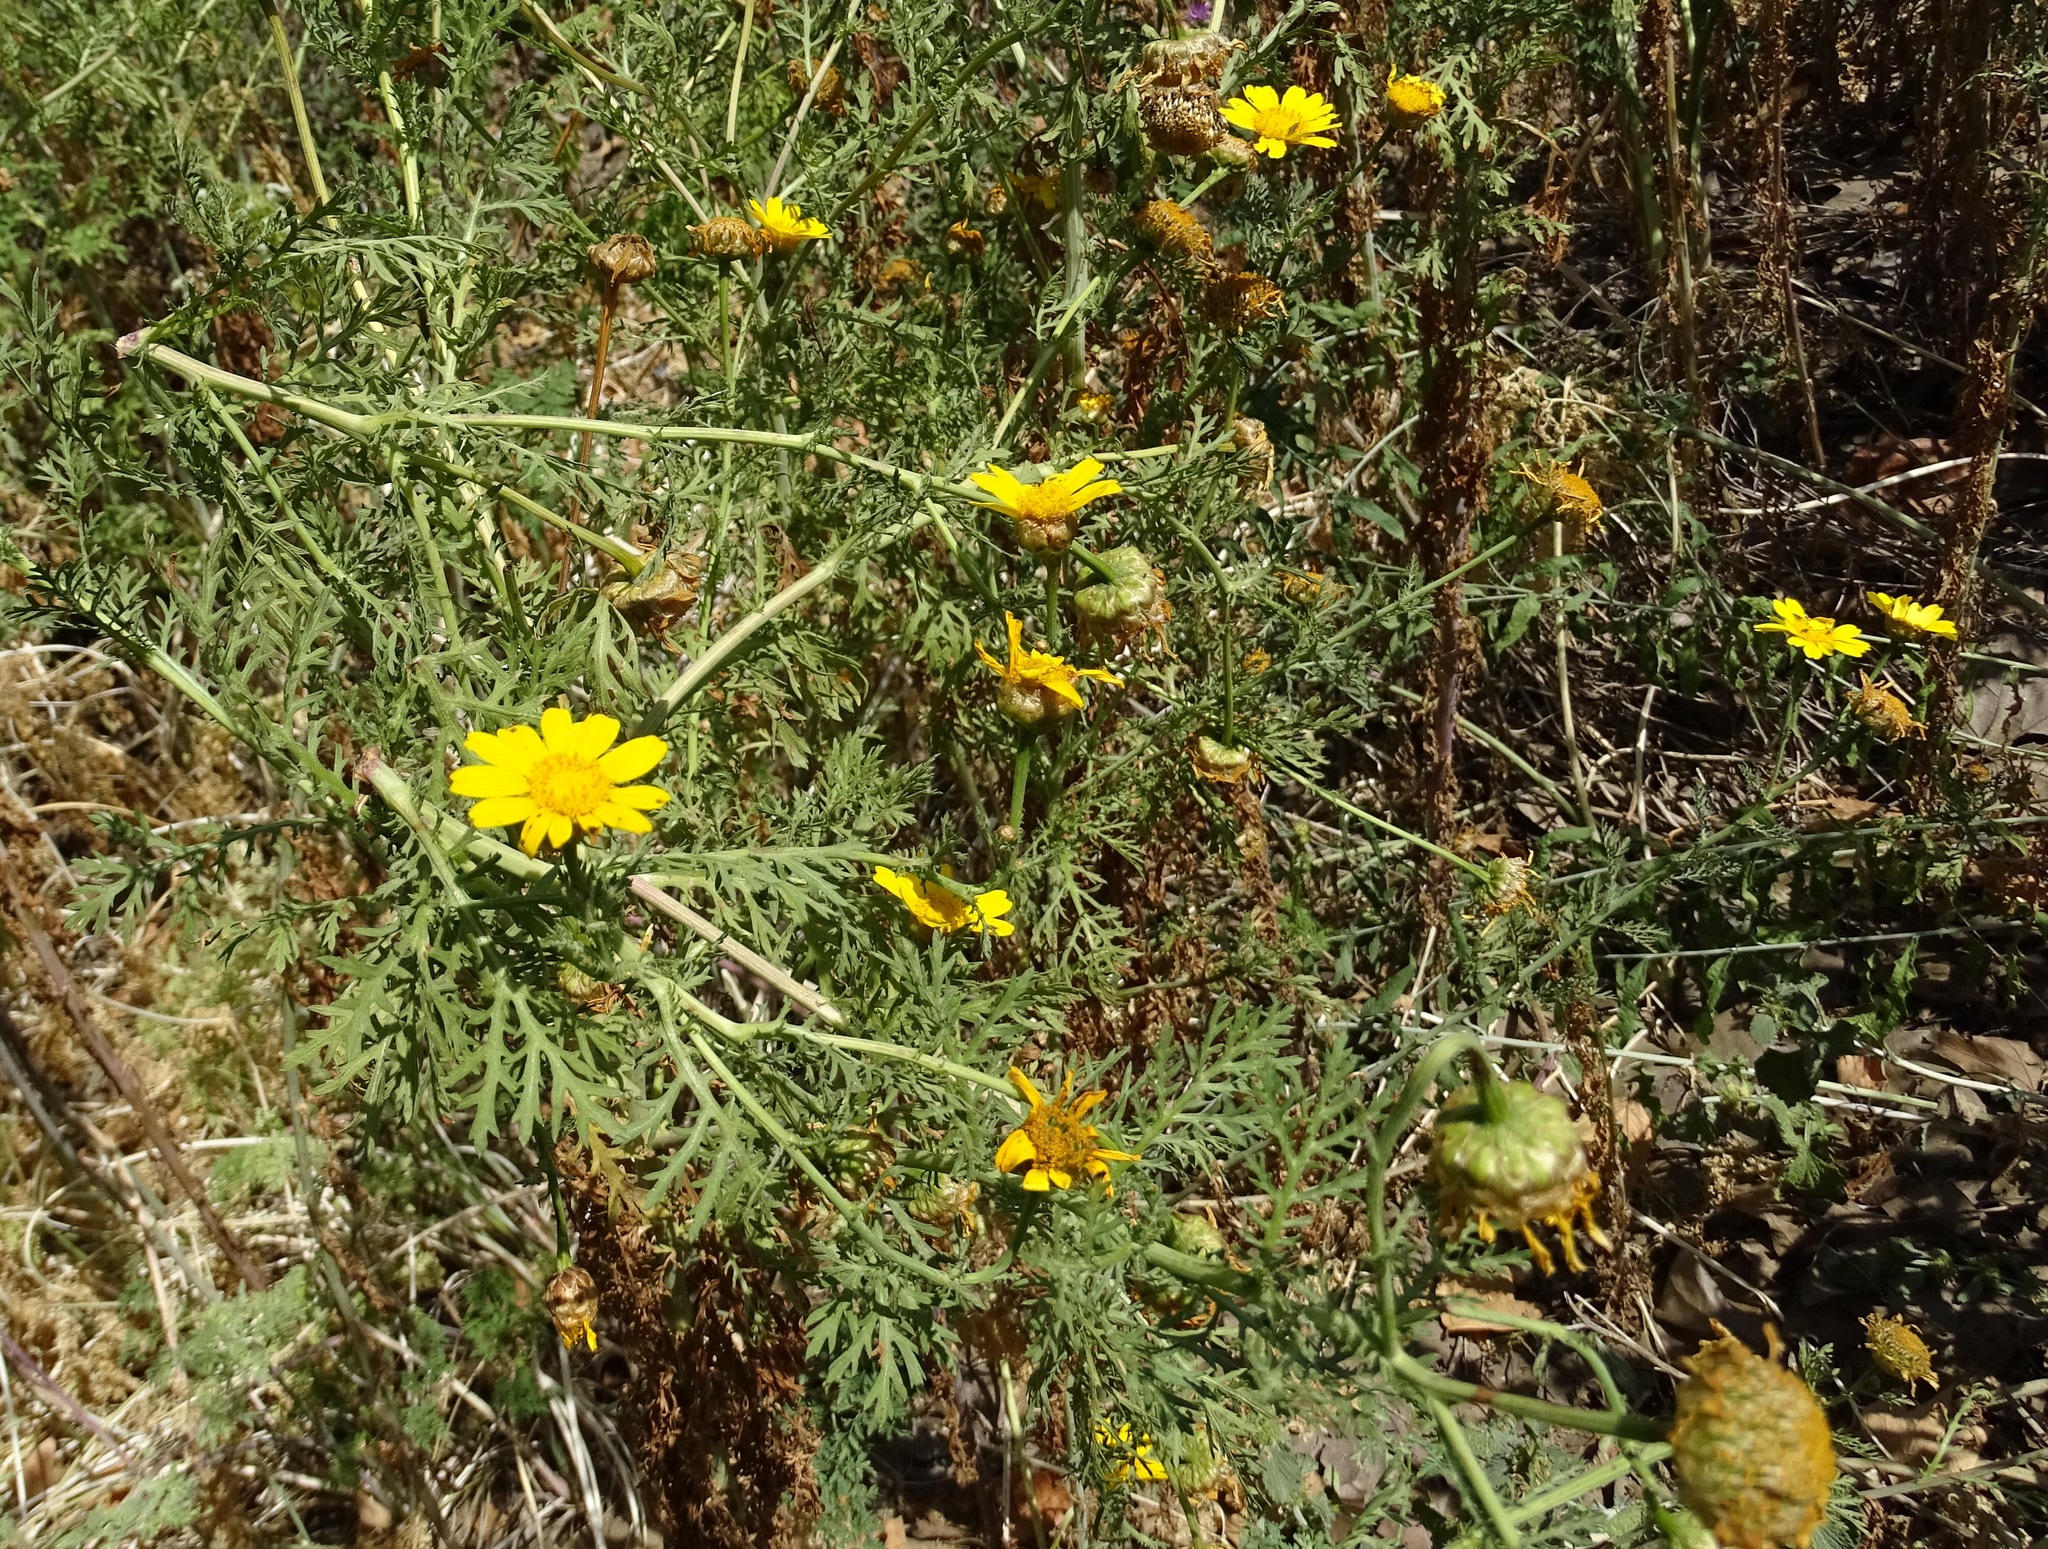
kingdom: Plantae
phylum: Tracheophyta
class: Magnoliopsida
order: Asterales
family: Asteraceae
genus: Glebionis
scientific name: Glebionis coronaria
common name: Crowndaisy
